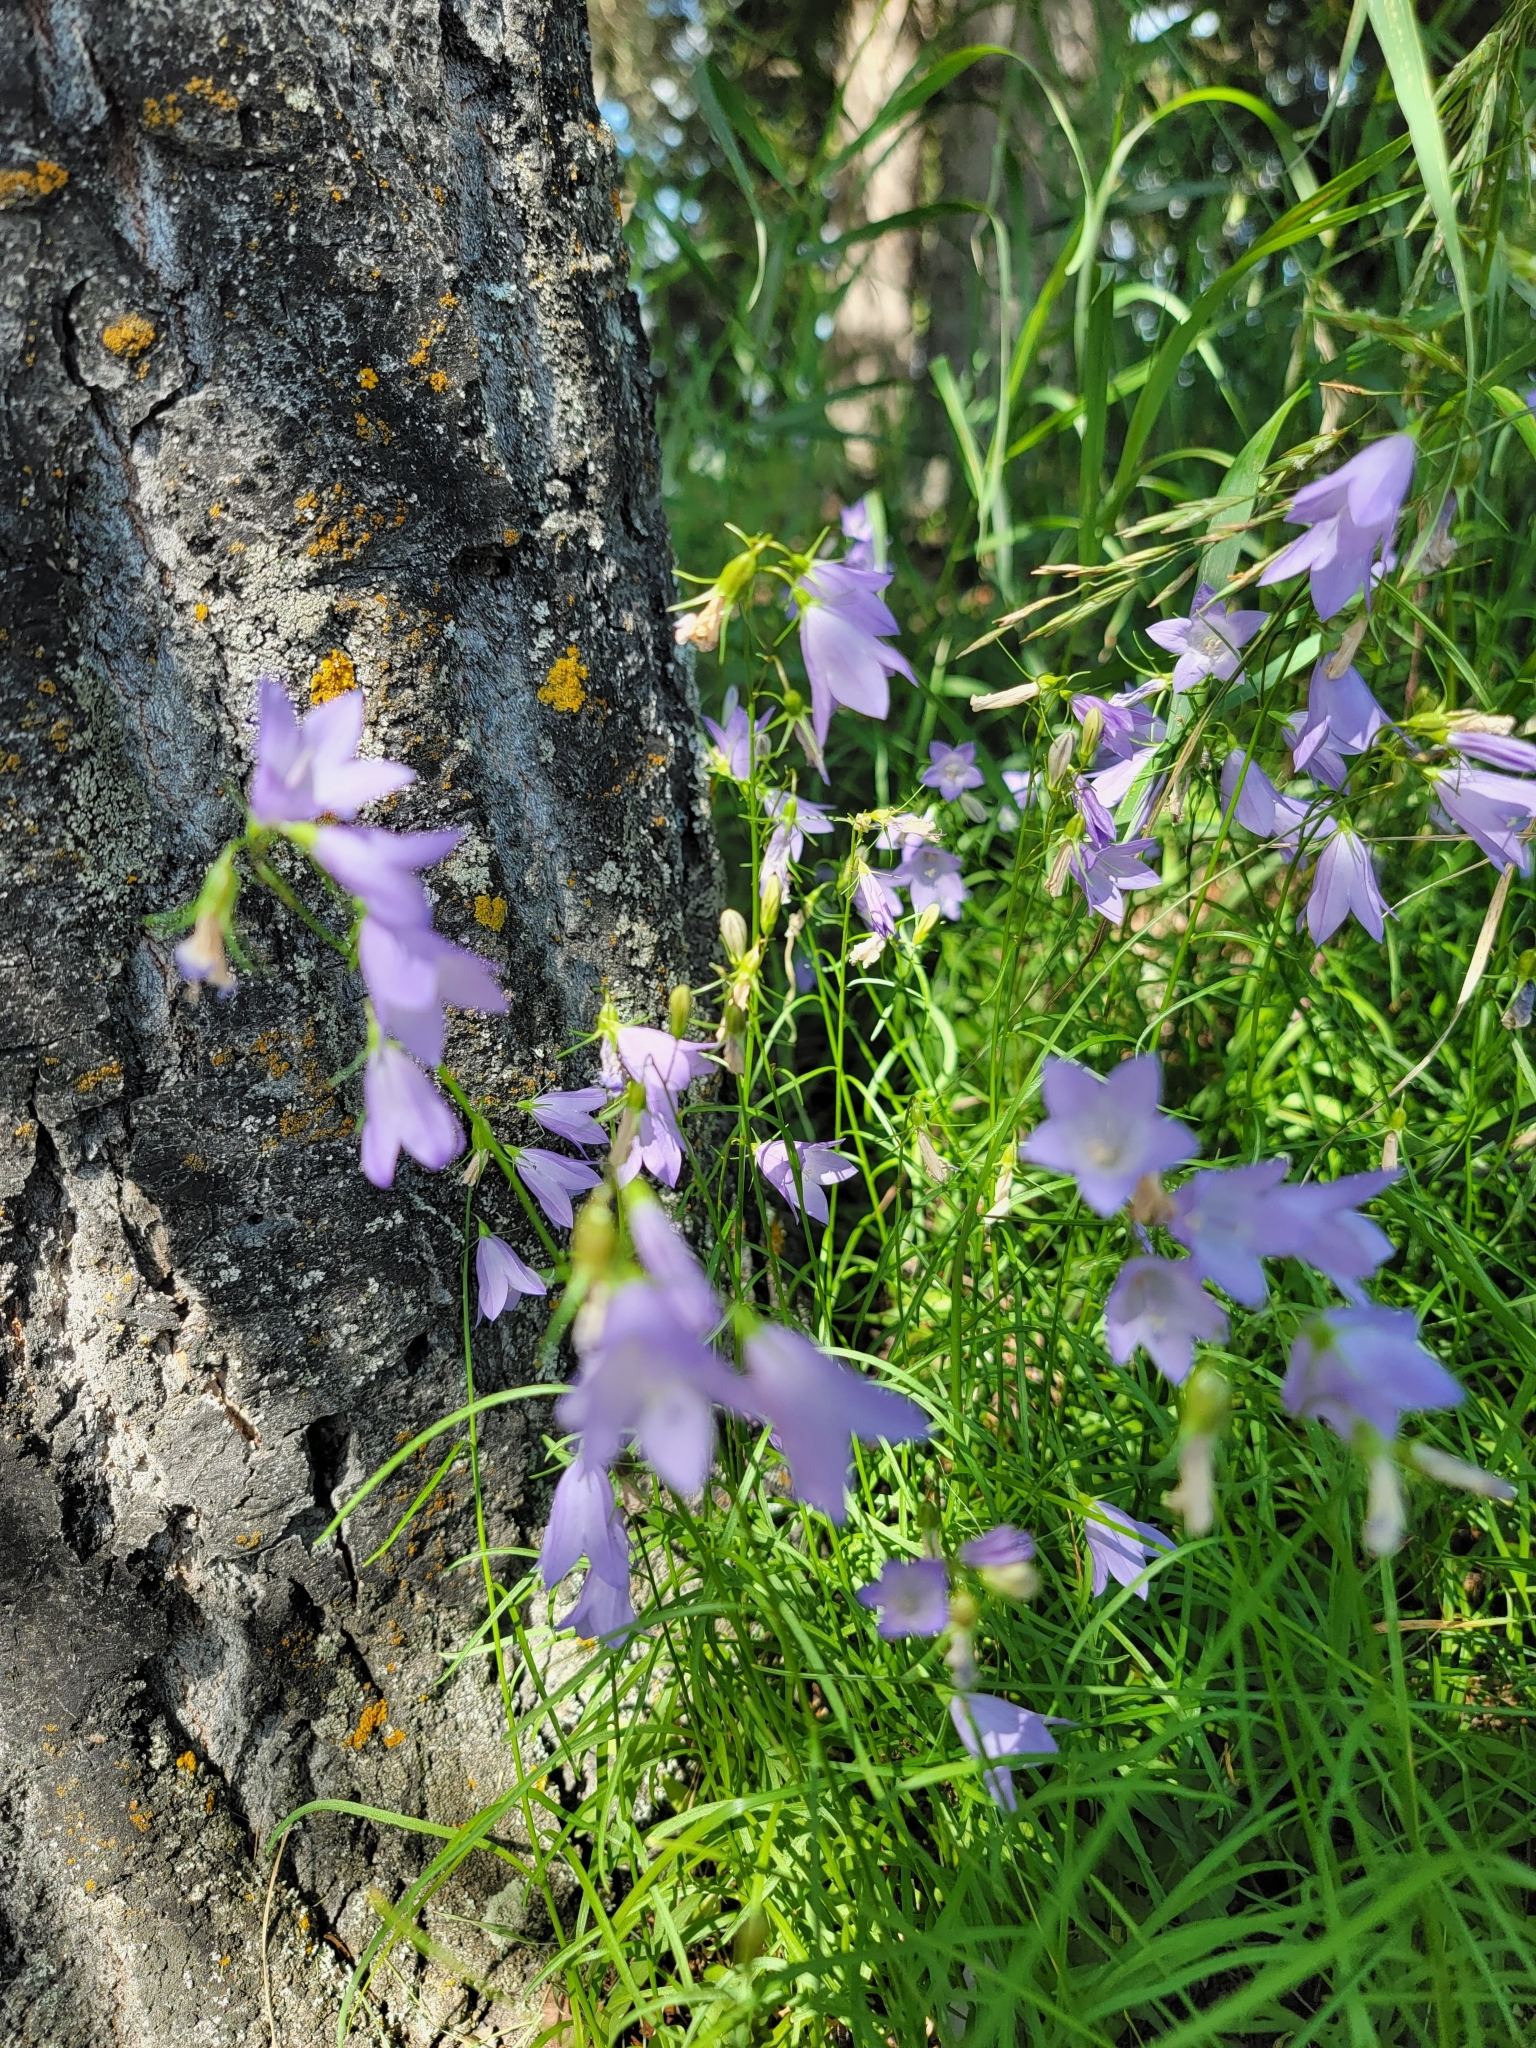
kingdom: Plantae
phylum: Tracheophyta
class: Magnoliopsida
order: Asterales
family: Campanulaceae
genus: Campanula
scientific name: Campanula alaskana
